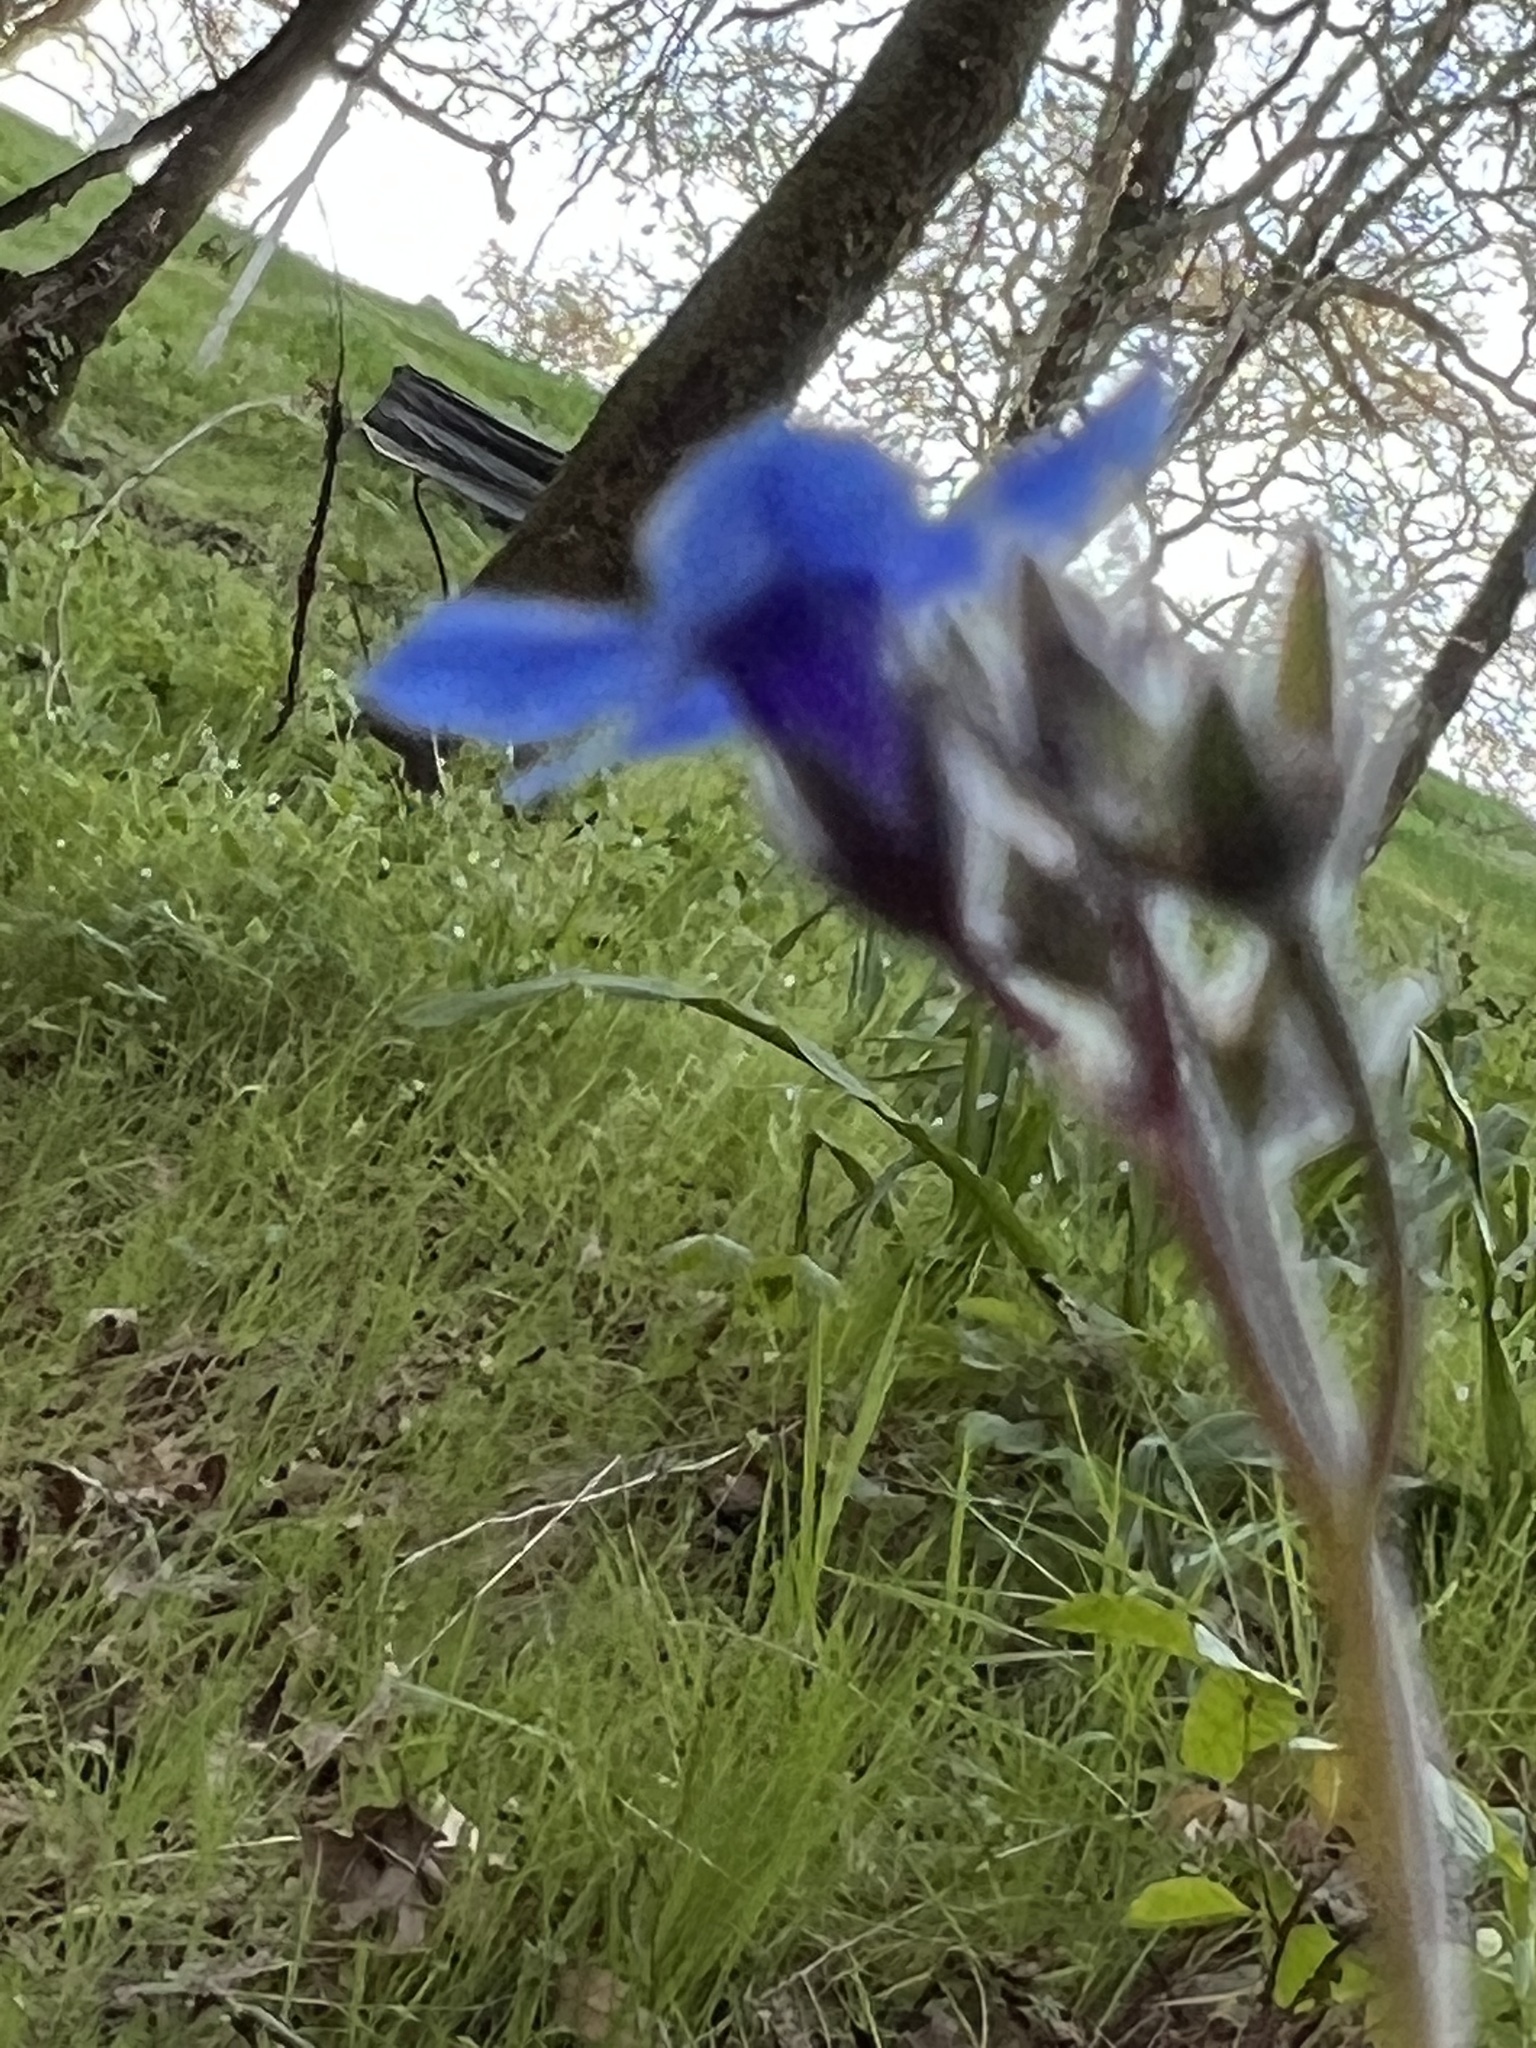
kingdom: Plantae
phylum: Tracheophyta
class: Magnoliopsida
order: Boraginales
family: Boraginaceae
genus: Adelinia
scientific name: Adelinia grande
